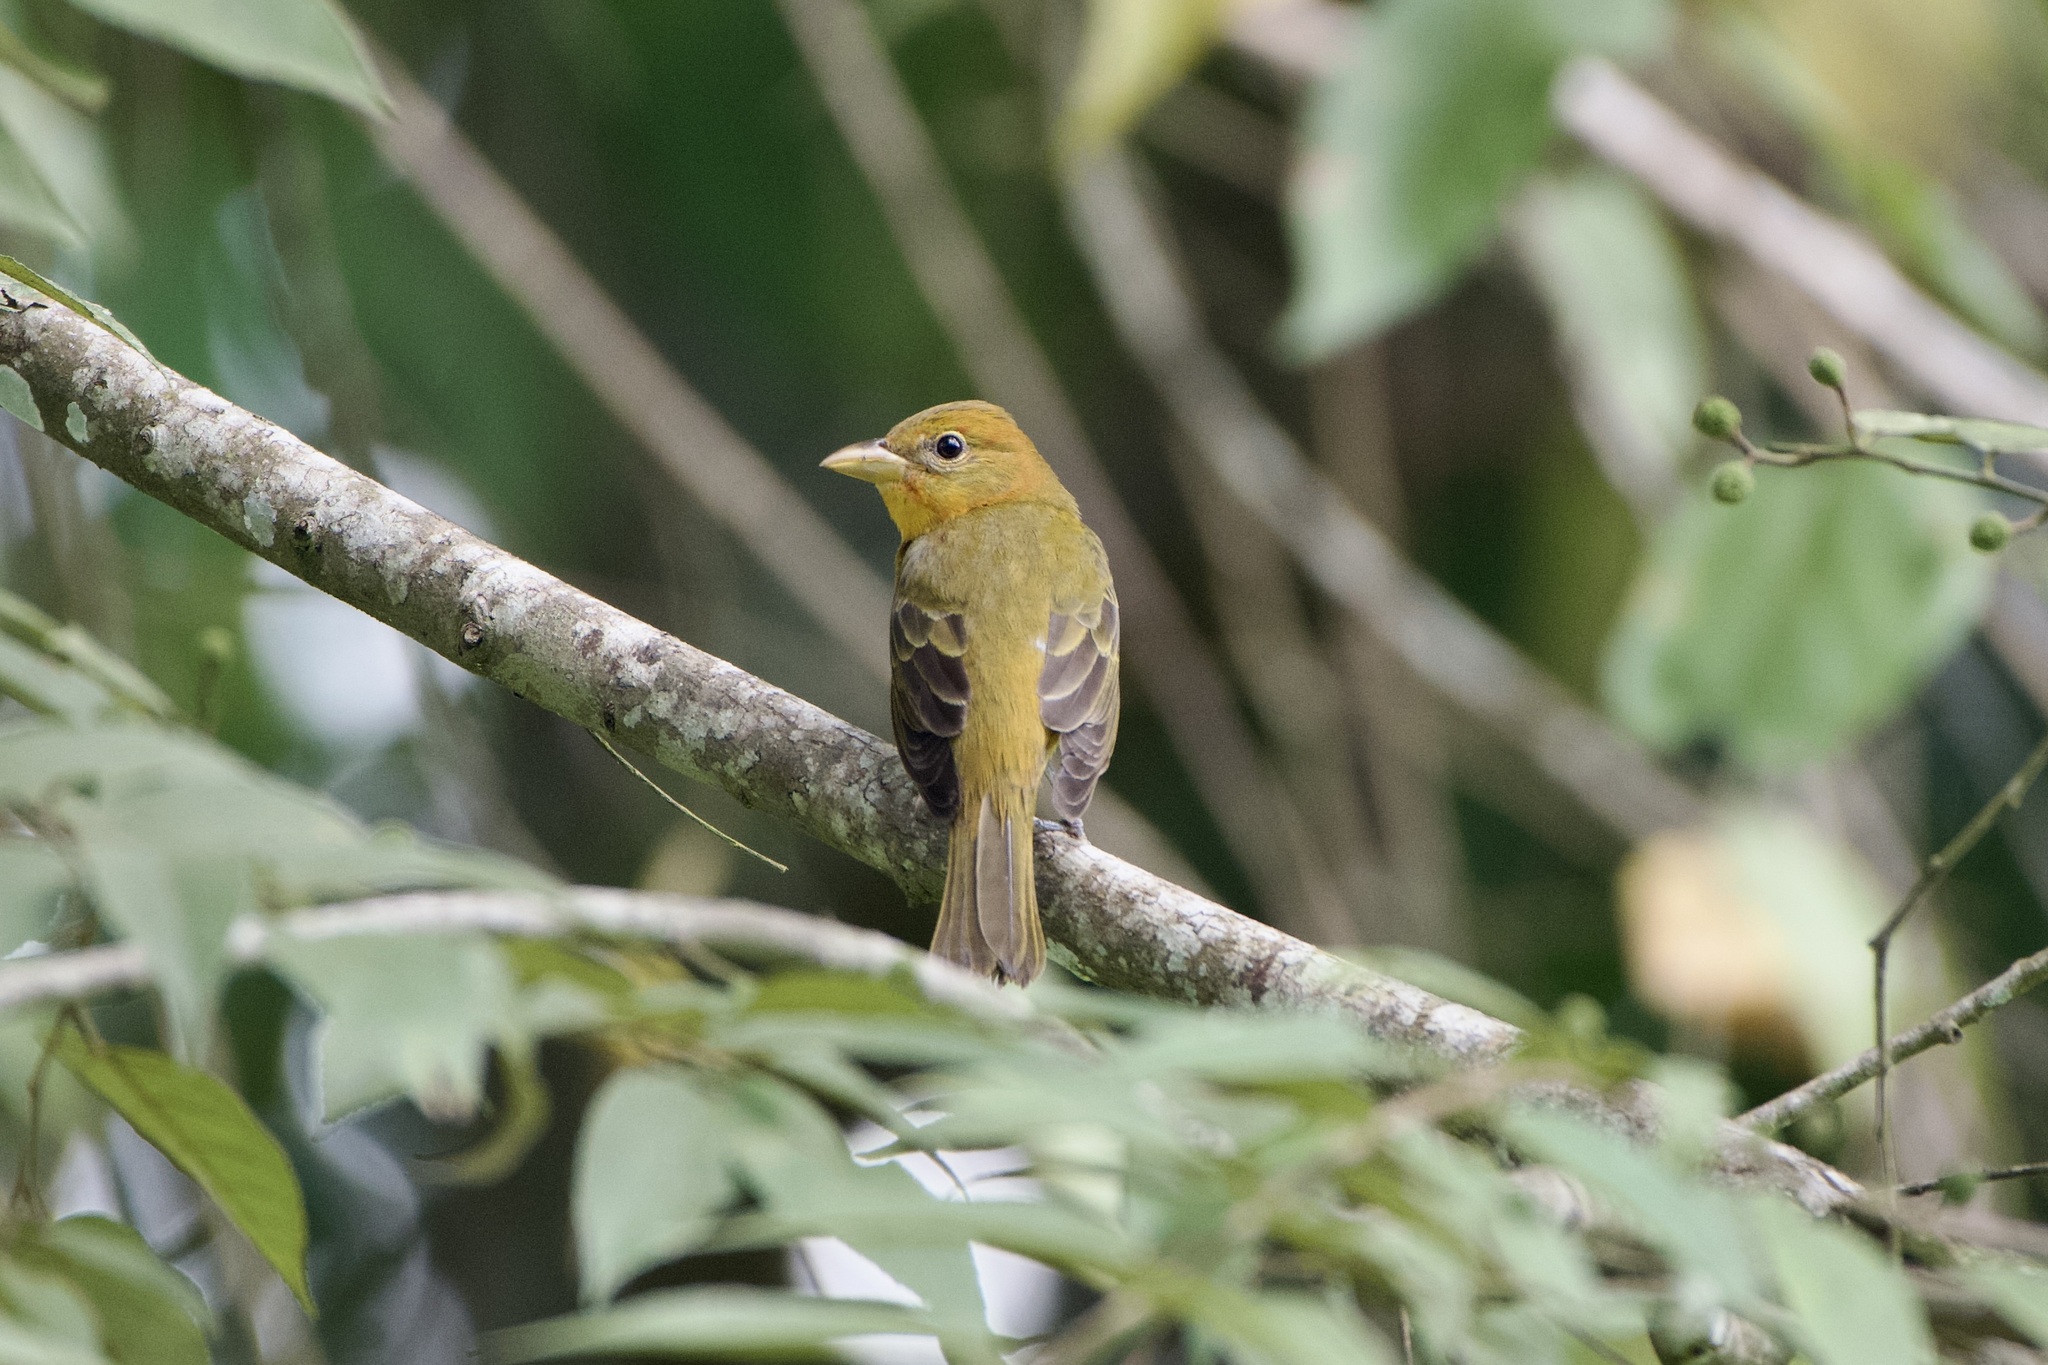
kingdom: Animalia
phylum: Chordata
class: Aves
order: Passeriformes
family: Cardinalidae
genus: Piranga
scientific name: Piranga rubra
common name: Summer tanager
